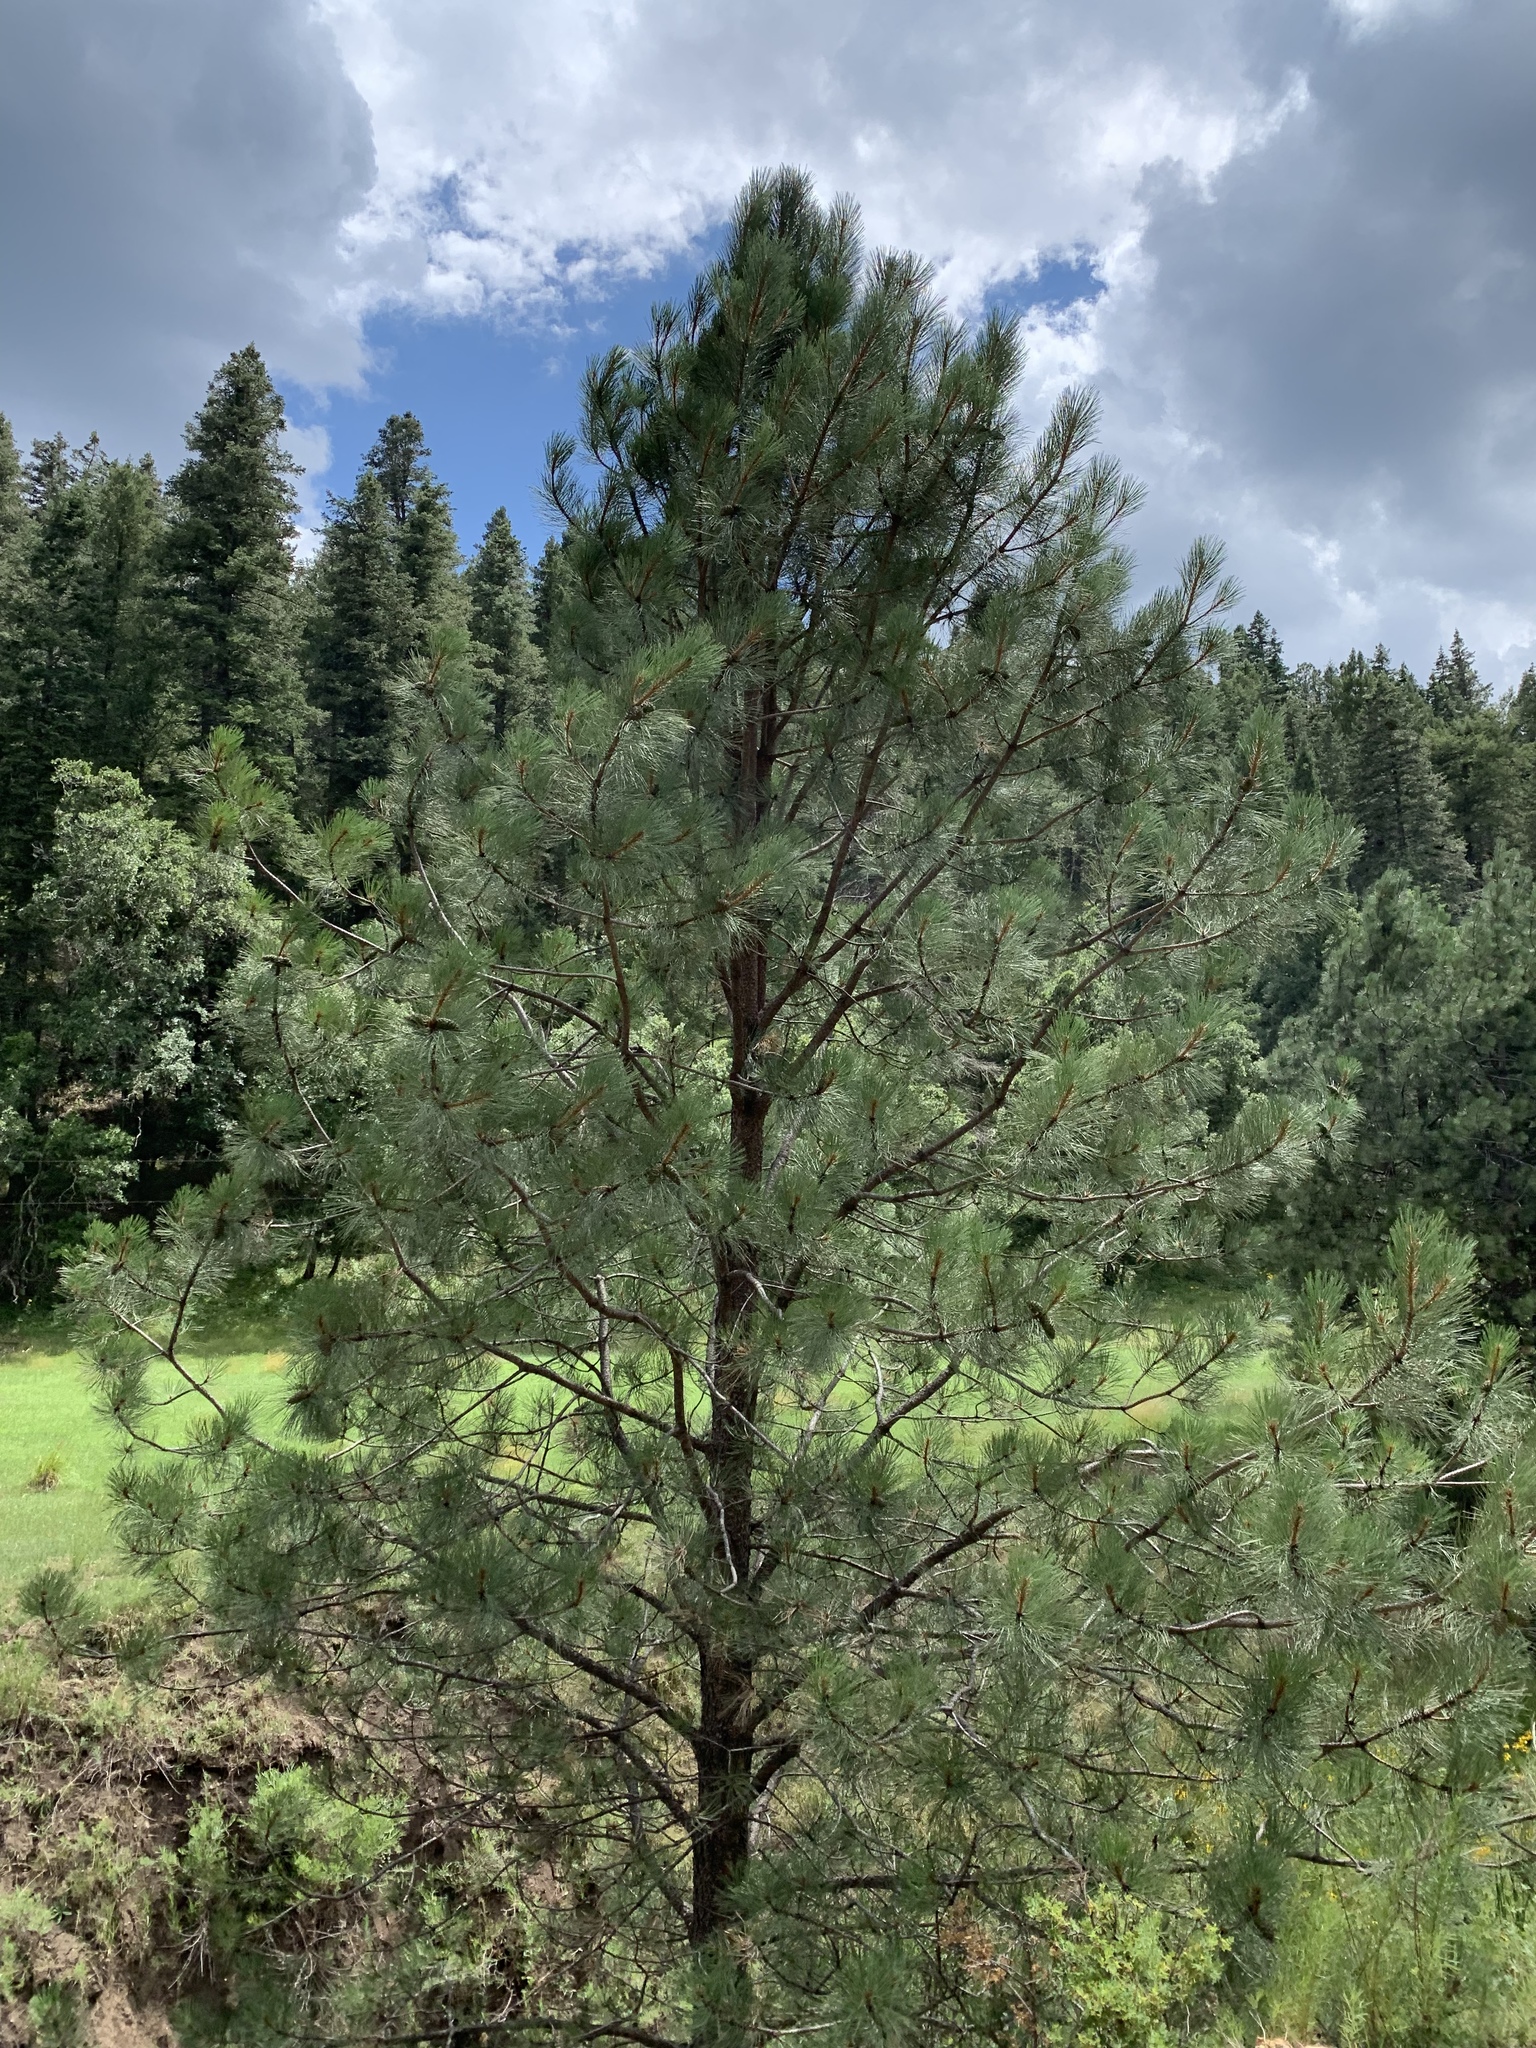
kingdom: Plantae
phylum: Tracheophyta
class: Pinopsida
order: Pinales
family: Pinaceae
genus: Pinus
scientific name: Pinus ponderosa
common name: Western yellow-pine
